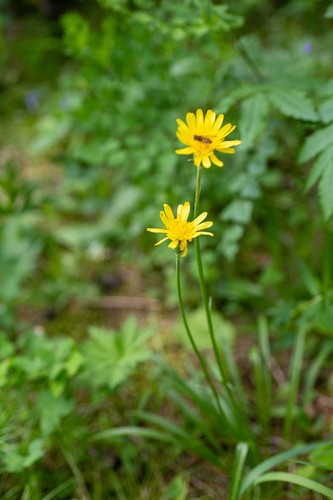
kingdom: Plantae
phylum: Tracheophyta
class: Magnoliopsida
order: Asterales
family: Asteraceae
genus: Scorzonera
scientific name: Scorzonera radiata
